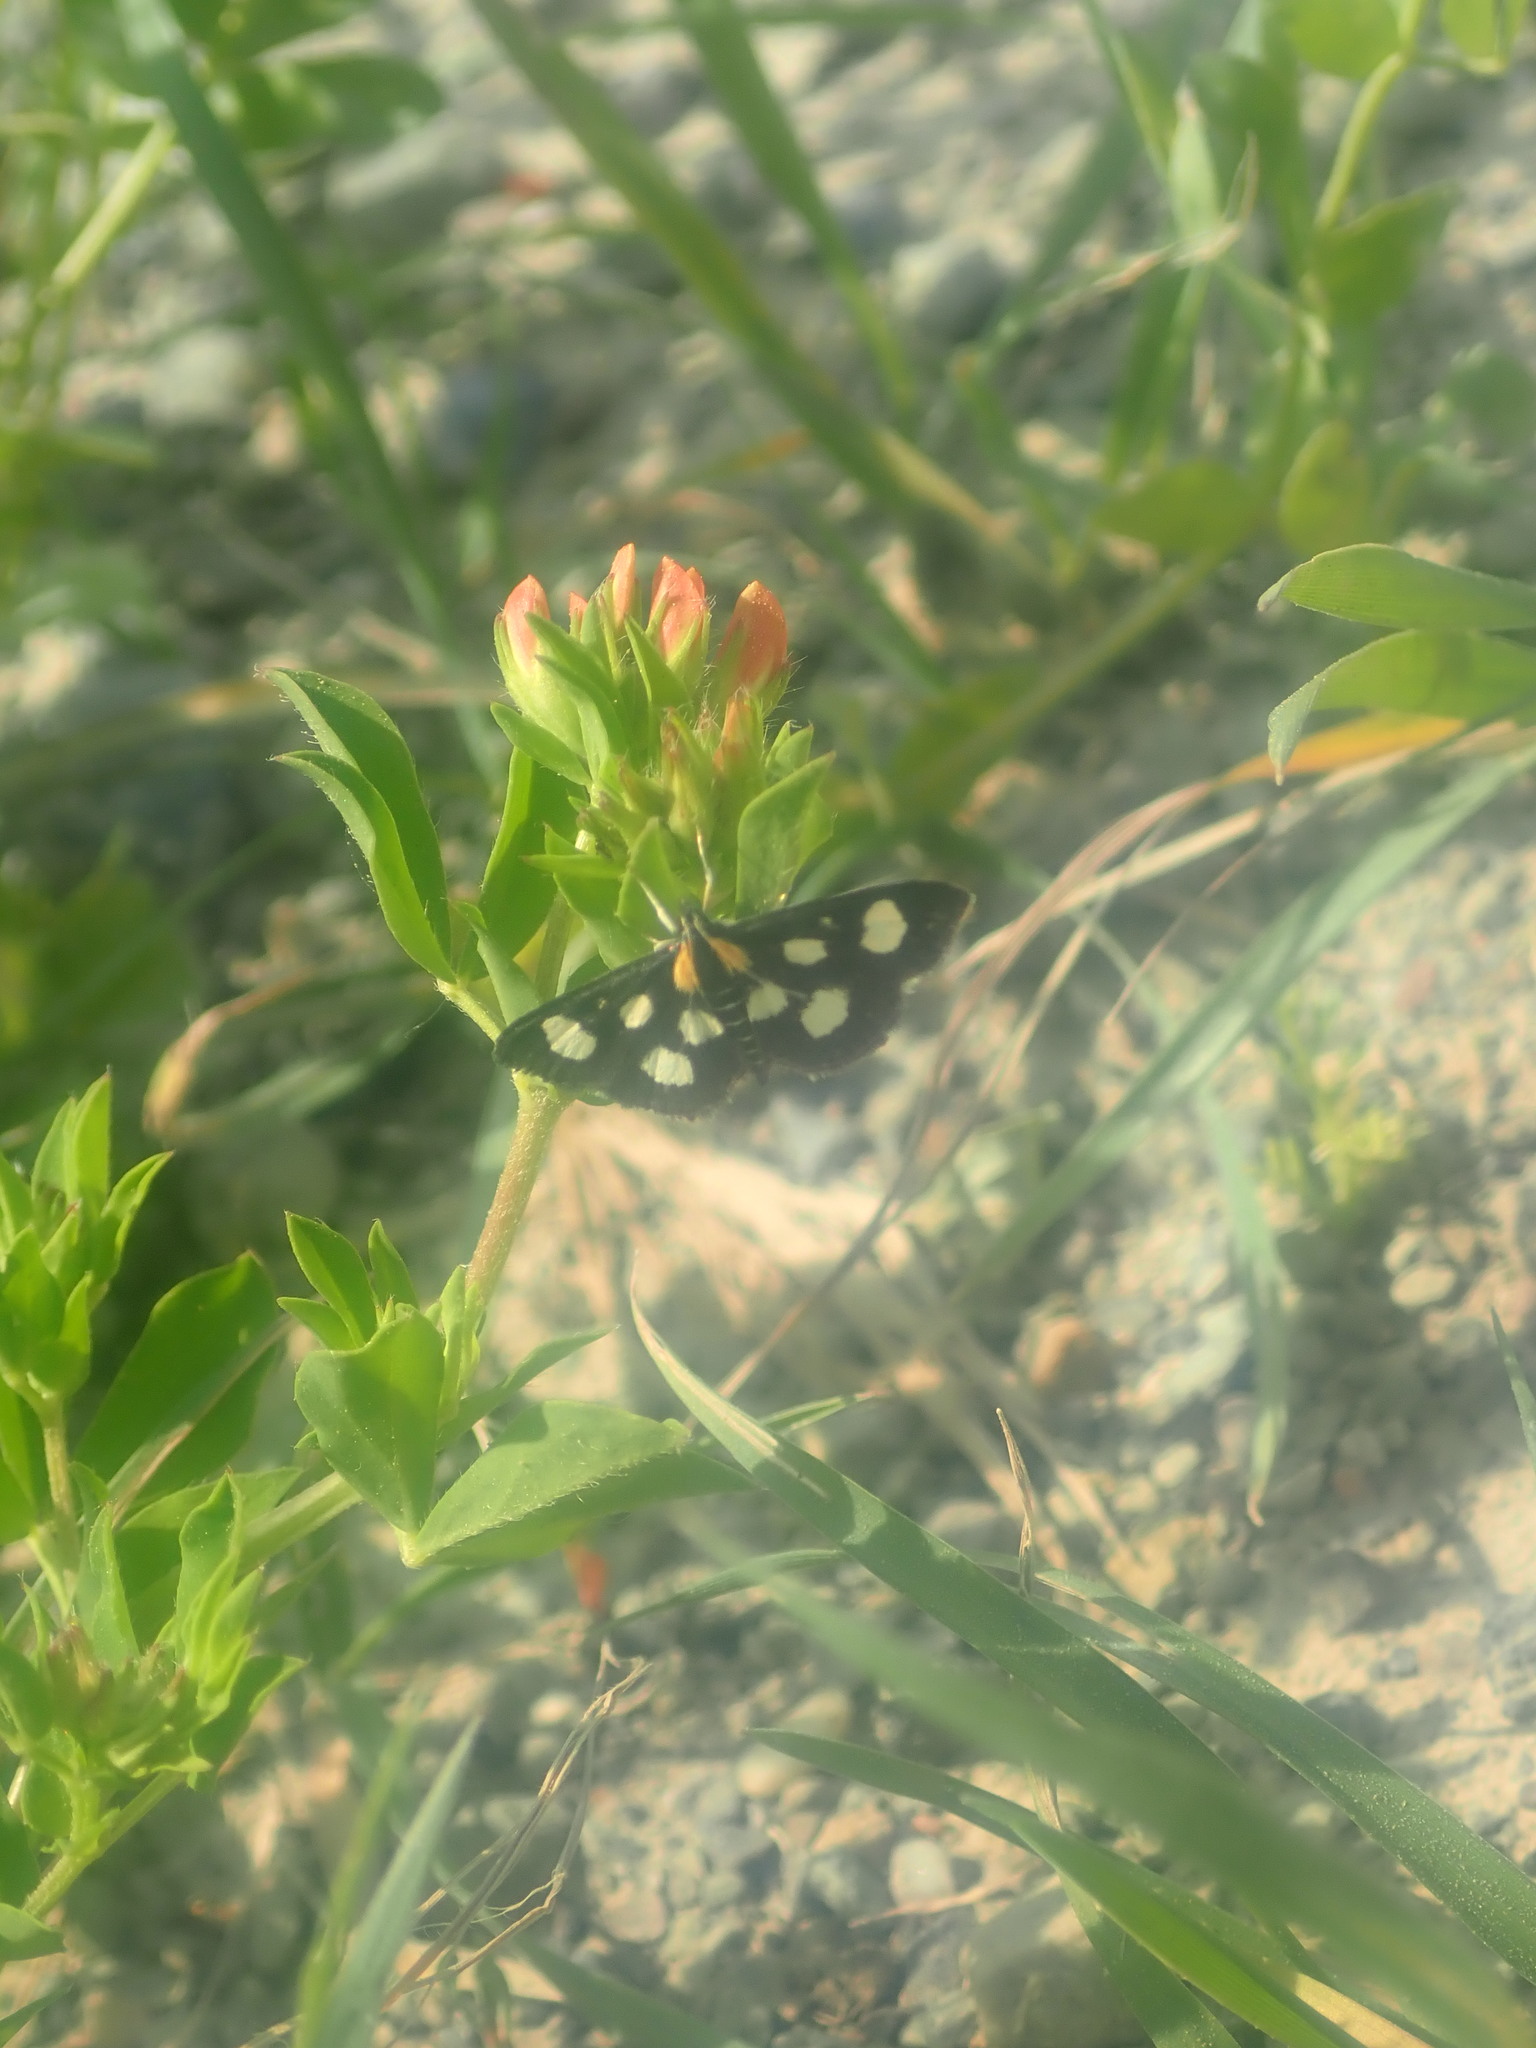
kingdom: Animalia
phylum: Arthropoda
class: Insecta
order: Lepidoptera
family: Crambidae
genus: Anania
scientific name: Anania funebris
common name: White-spotted sable moth
